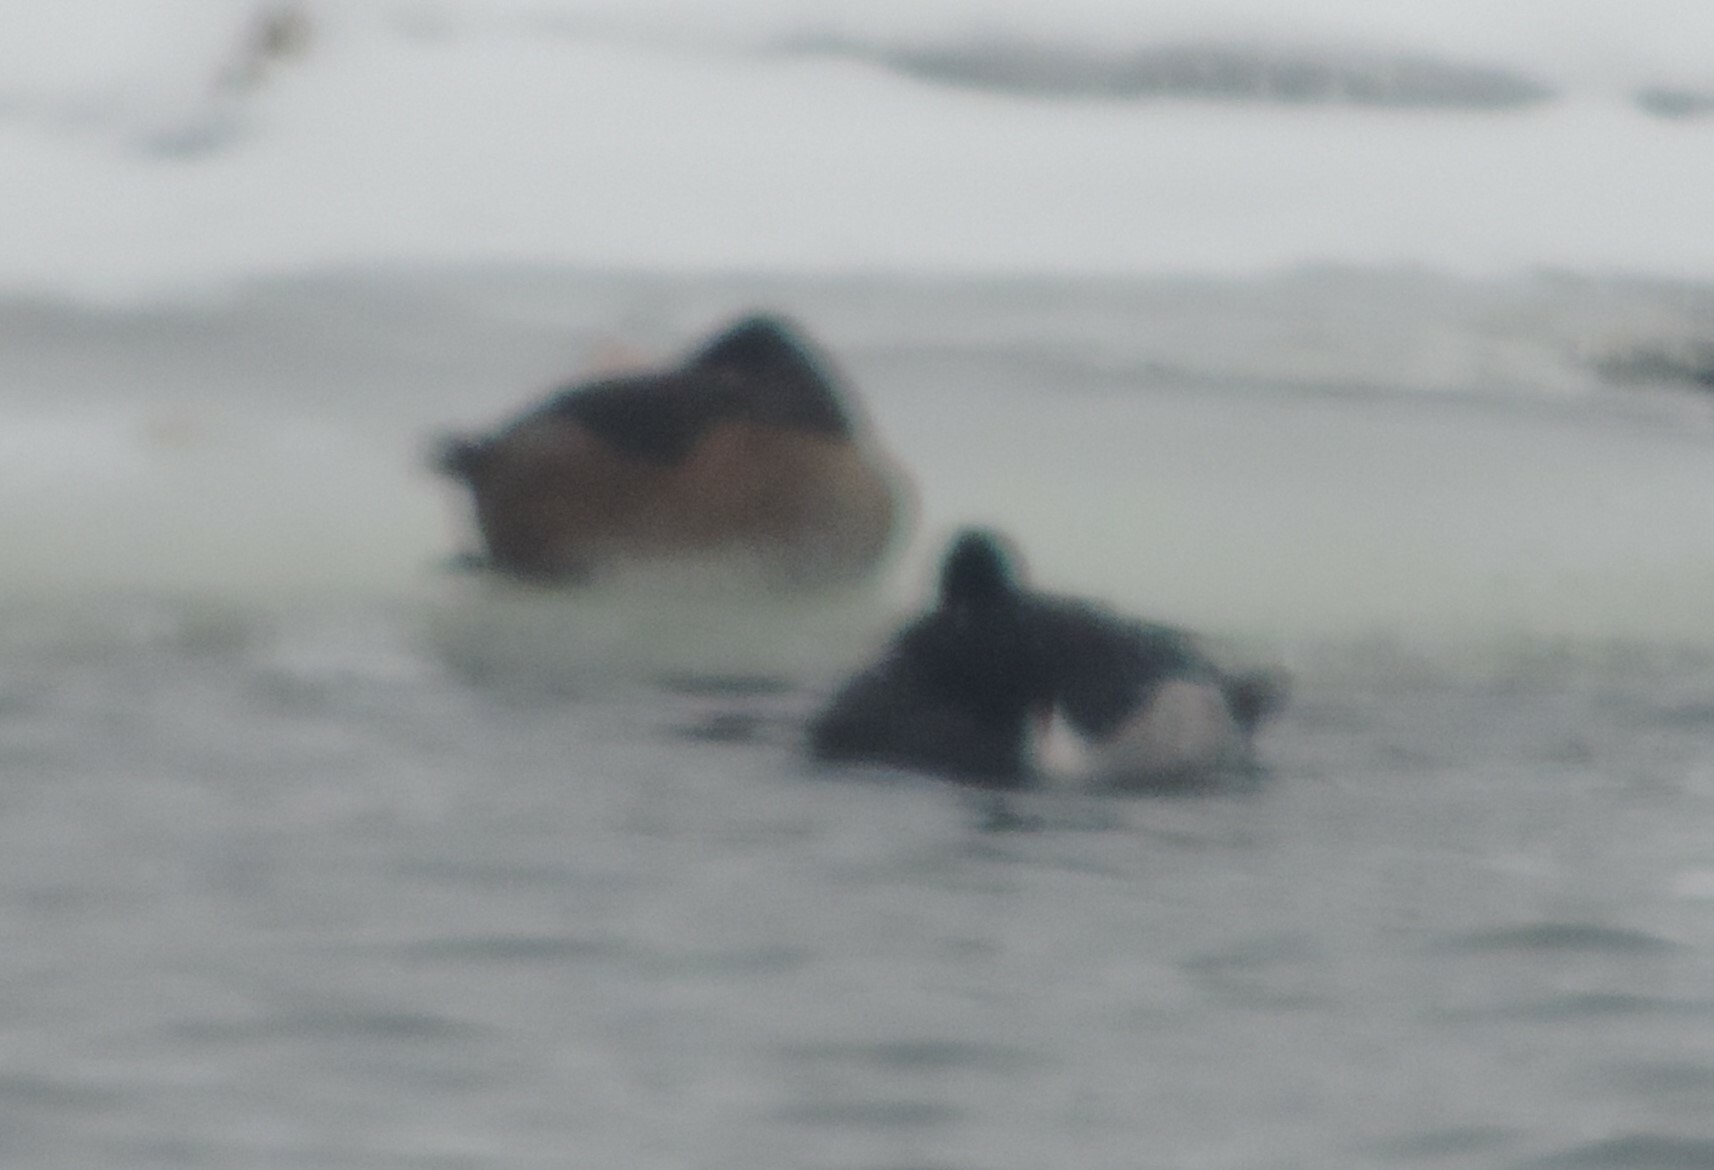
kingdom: Animalia
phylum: Chordata
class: Aves
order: Anseriformes
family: Anatidae
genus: Aythya
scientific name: Aythya collaris
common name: Ring-necked duck
